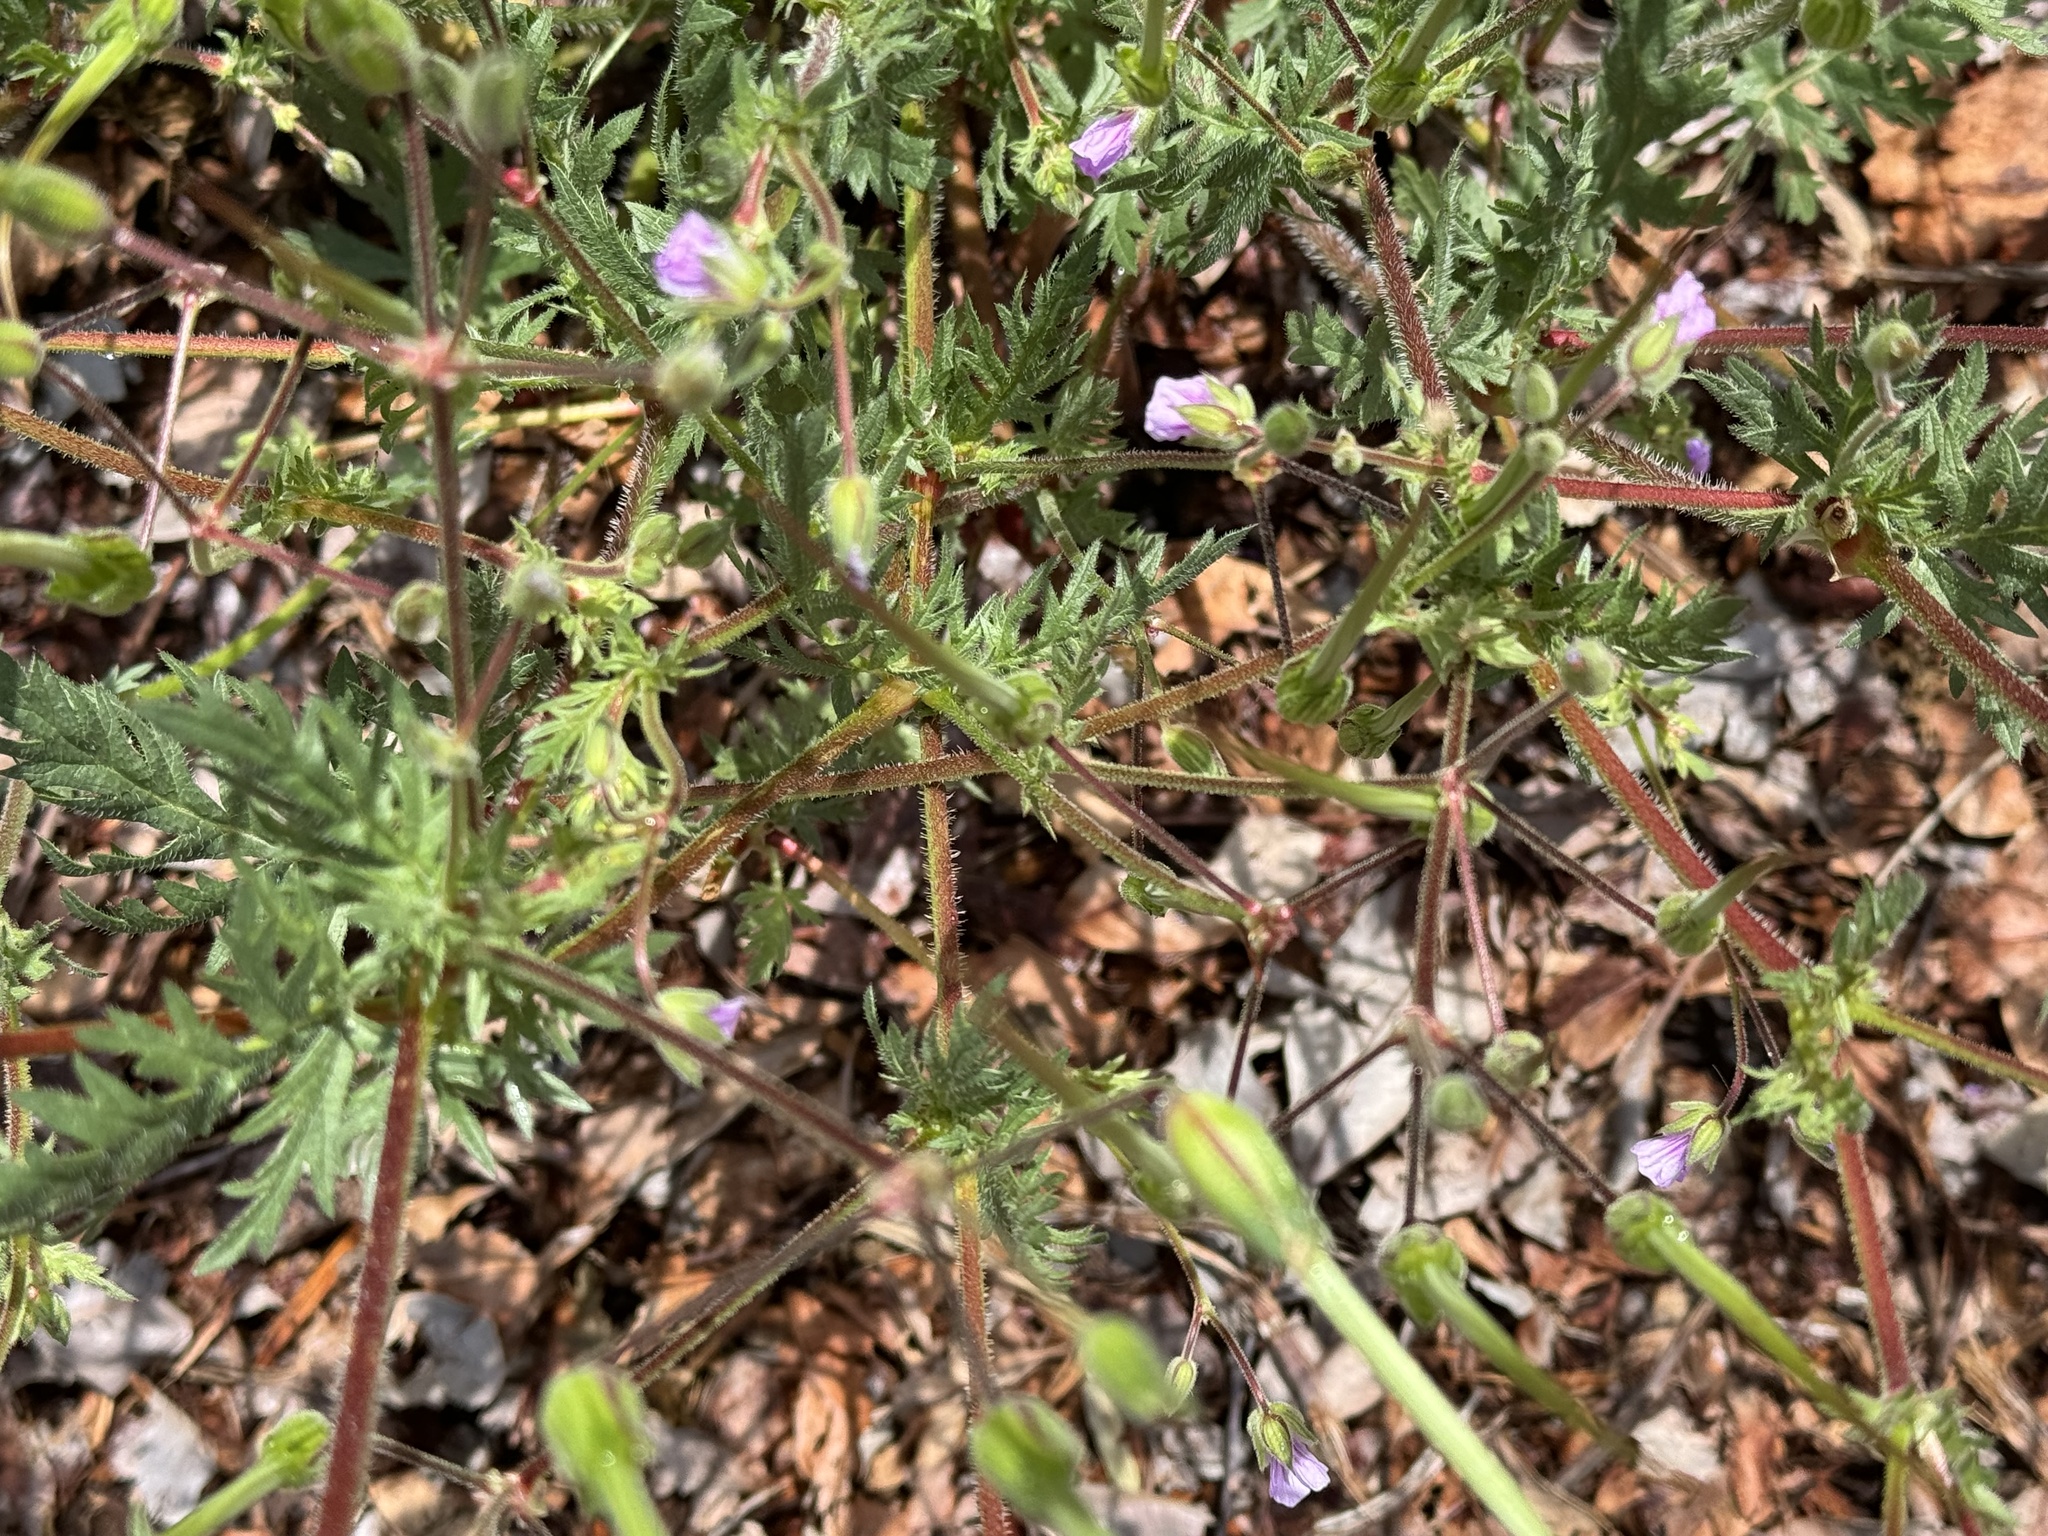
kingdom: Plantae
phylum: Tracheophyta
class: Magnoliopsida
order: Geraniales
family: Geraniaceae
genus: Erodium
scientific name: Erodium botrys
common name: Mediterranean stork's-bill
